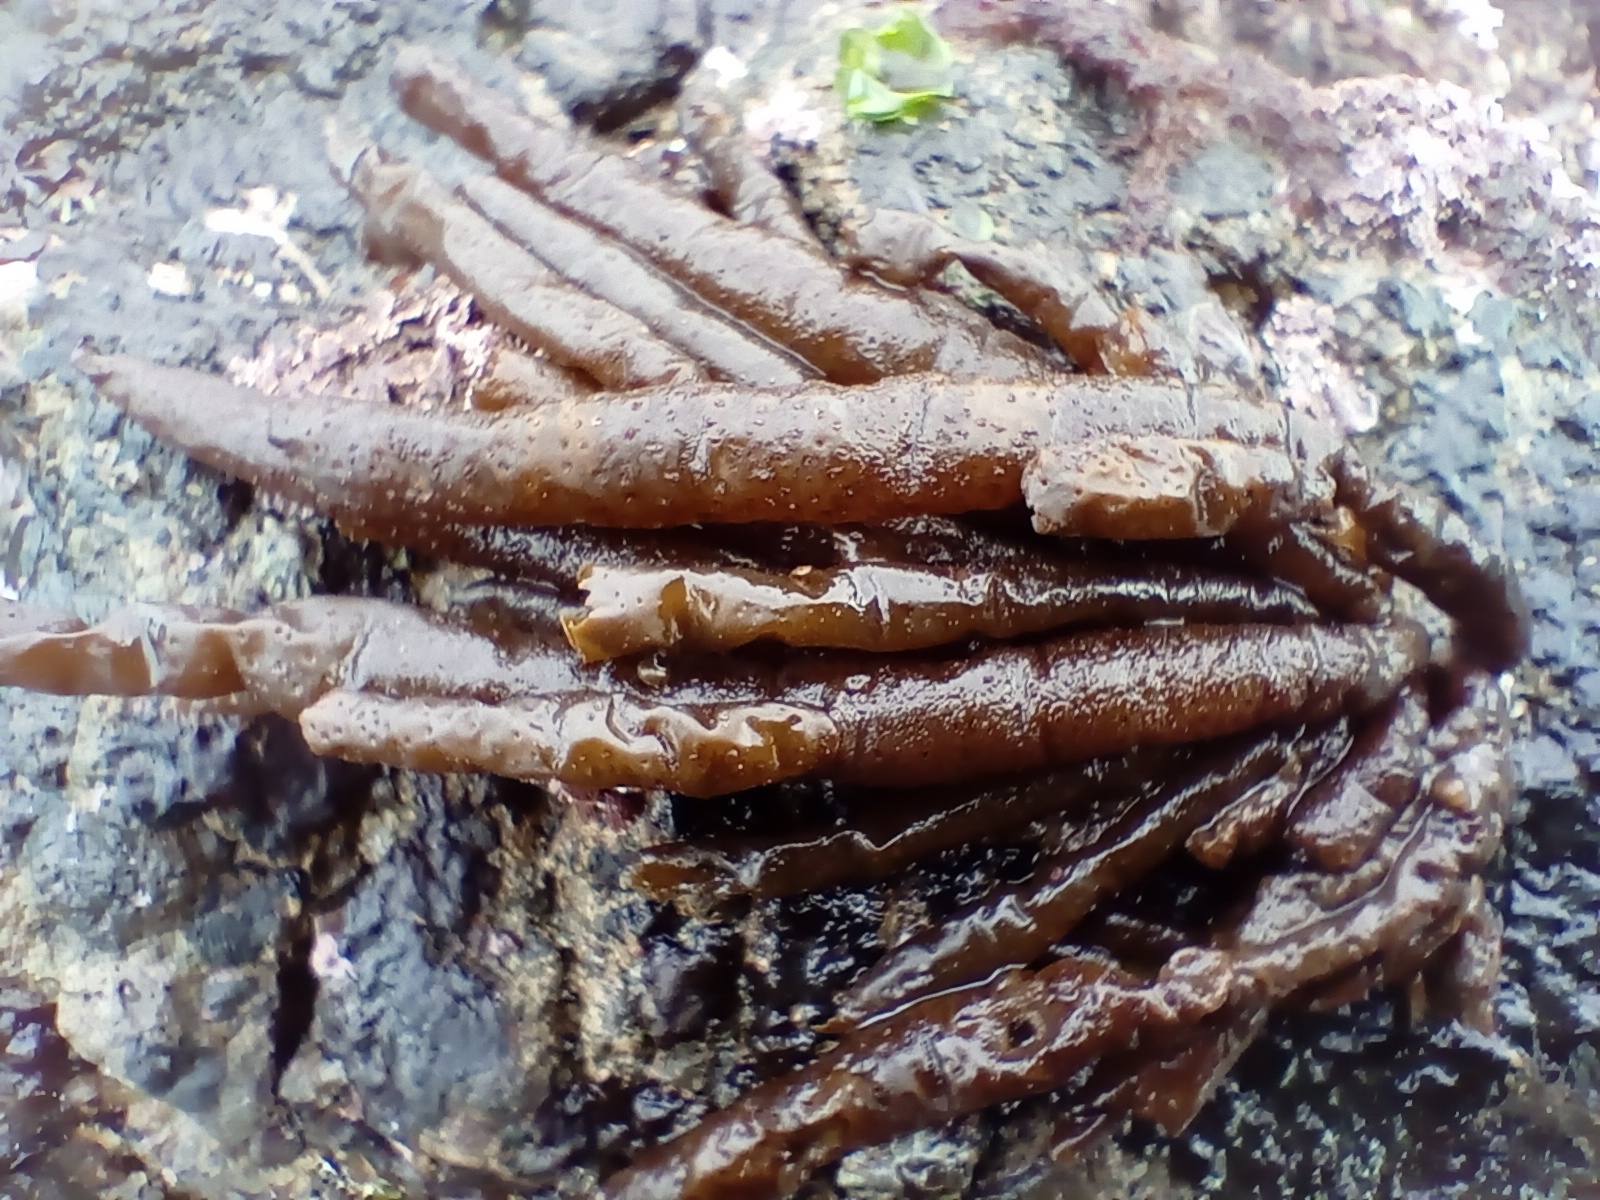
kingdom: Chromista
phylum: Ochrophyta
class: Phaeophyceae
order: Scytothamnales
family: Splachnidiaceae
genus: Splachnidium
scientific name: Splachnidium rugosum
